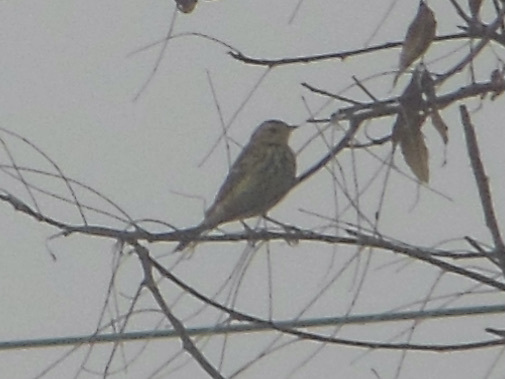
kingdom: Animalia
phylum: Chordata
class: Aves
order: Passeriformes
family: Motacillidae
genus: Anthus
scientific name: Anthus hodgsoni
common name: Olive-backed pipit
